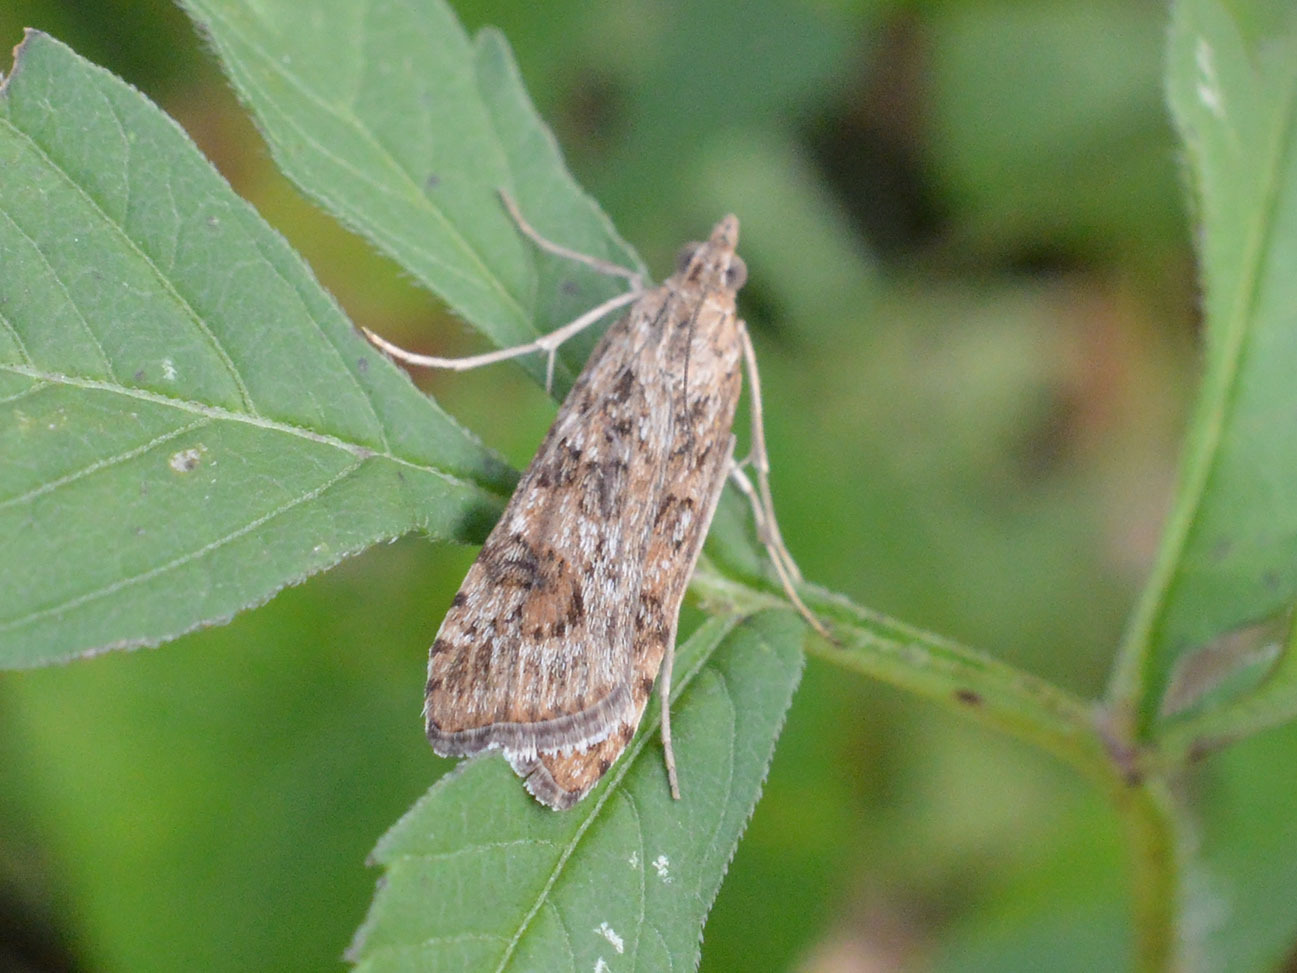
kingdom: Animalia
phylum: Arthropoda
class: Insecta
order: Lepidoptera
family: Crambidae
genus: Nomophila
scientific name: Nomophila noctuella
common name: Rush veneer
